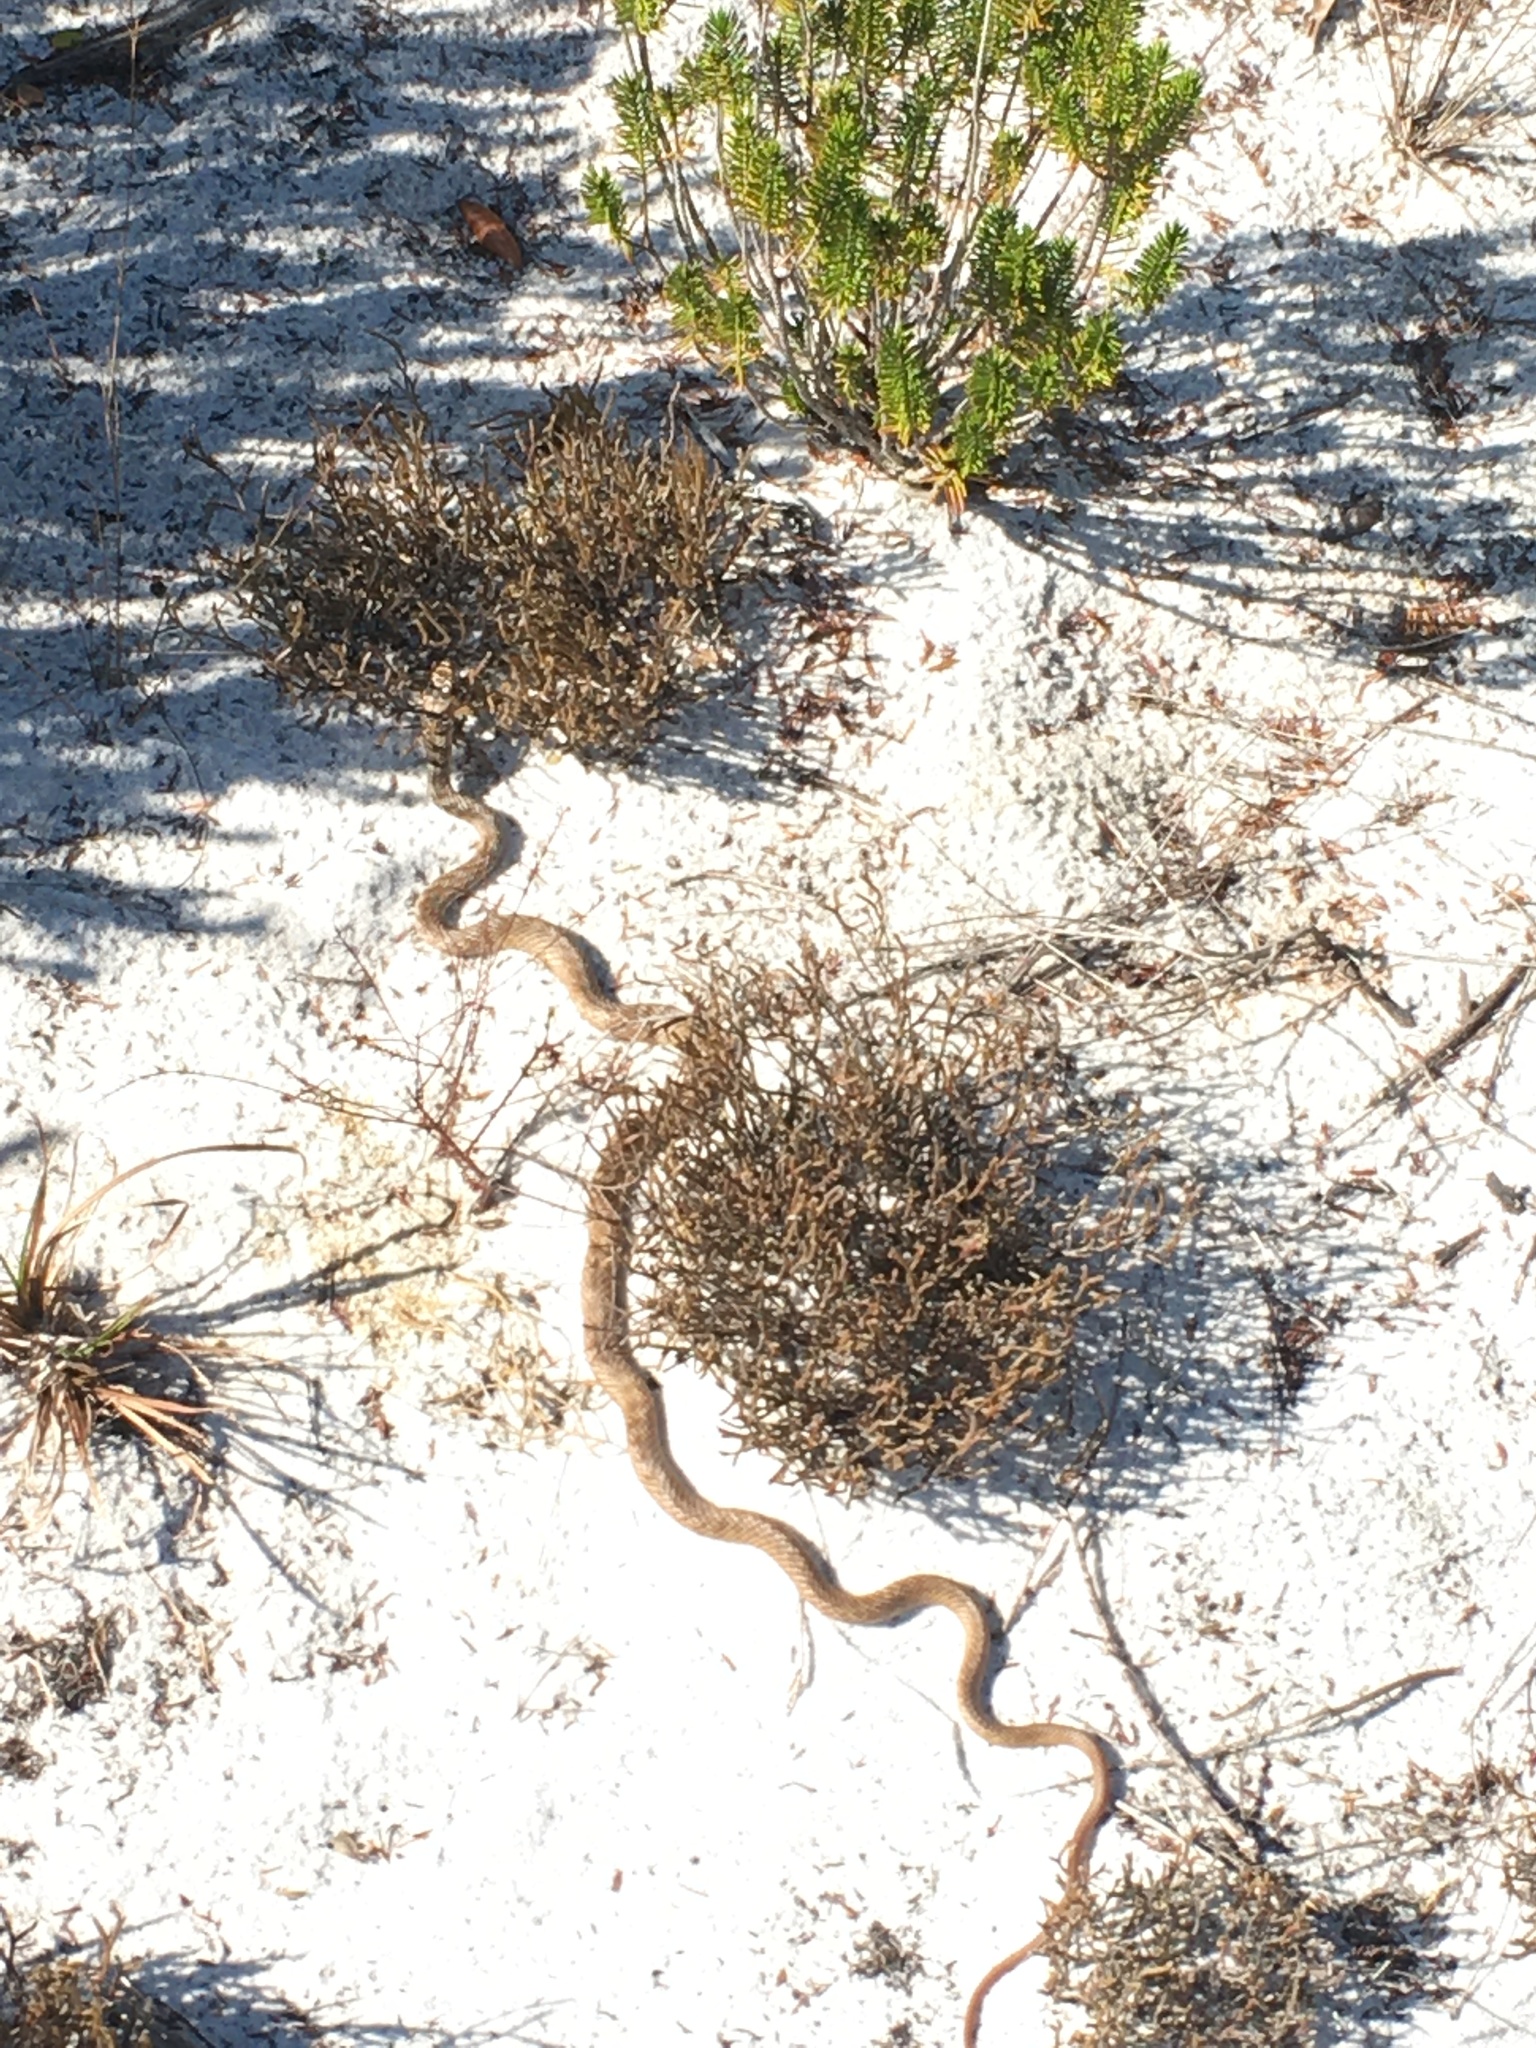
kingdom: Animalia
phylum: Chordata
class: Squamata
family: Colubridae
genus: Masticophis
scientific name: Masticophis flagellum
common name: Coachwhip
